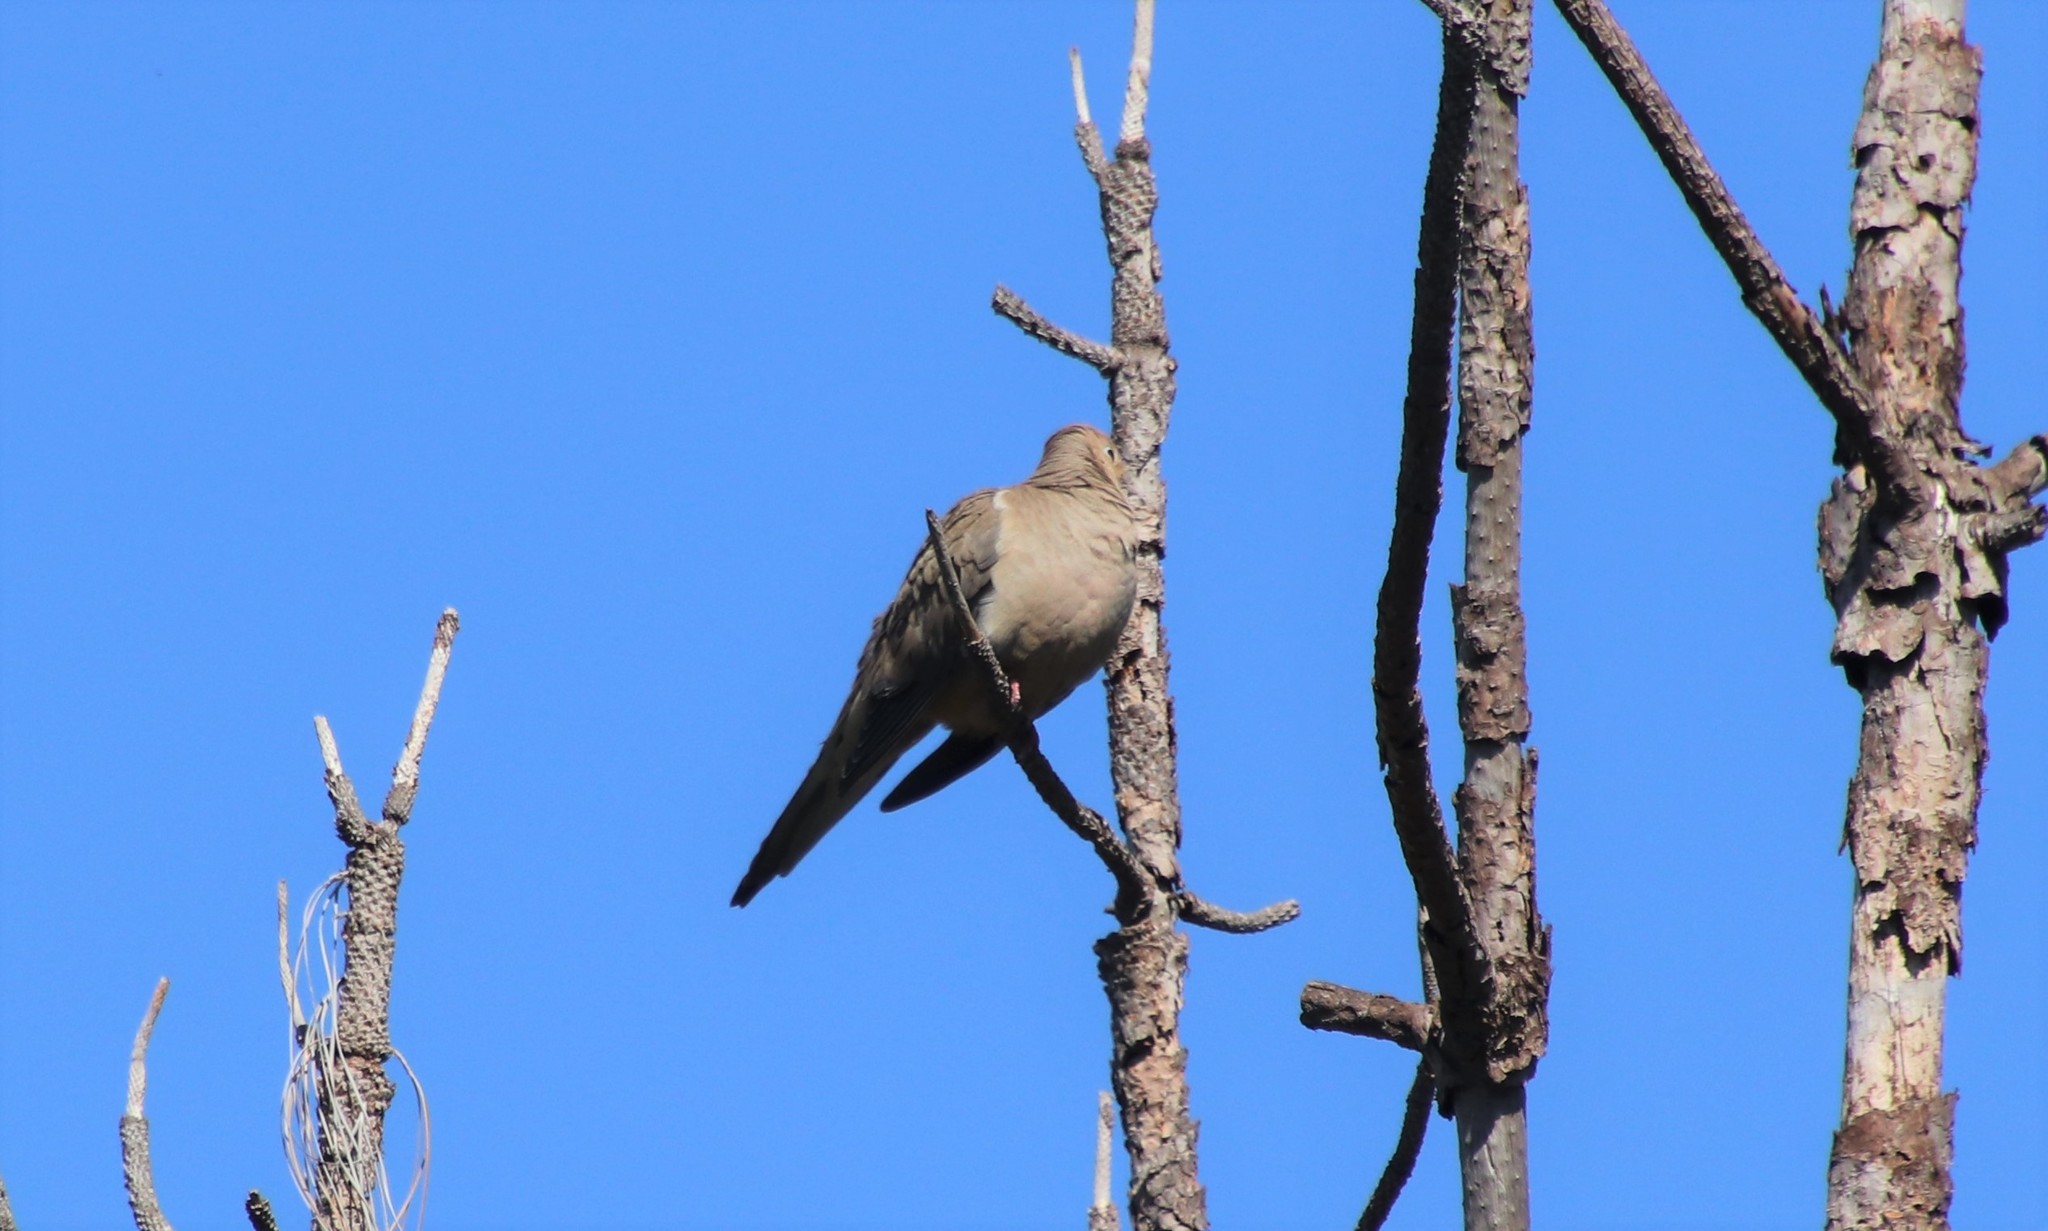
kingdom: Animalia
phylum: Chordata
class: Aves
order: Columbiformes
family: Columbidae
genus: Zenaida
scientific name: Zenaida macroura
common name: Mourning dove
